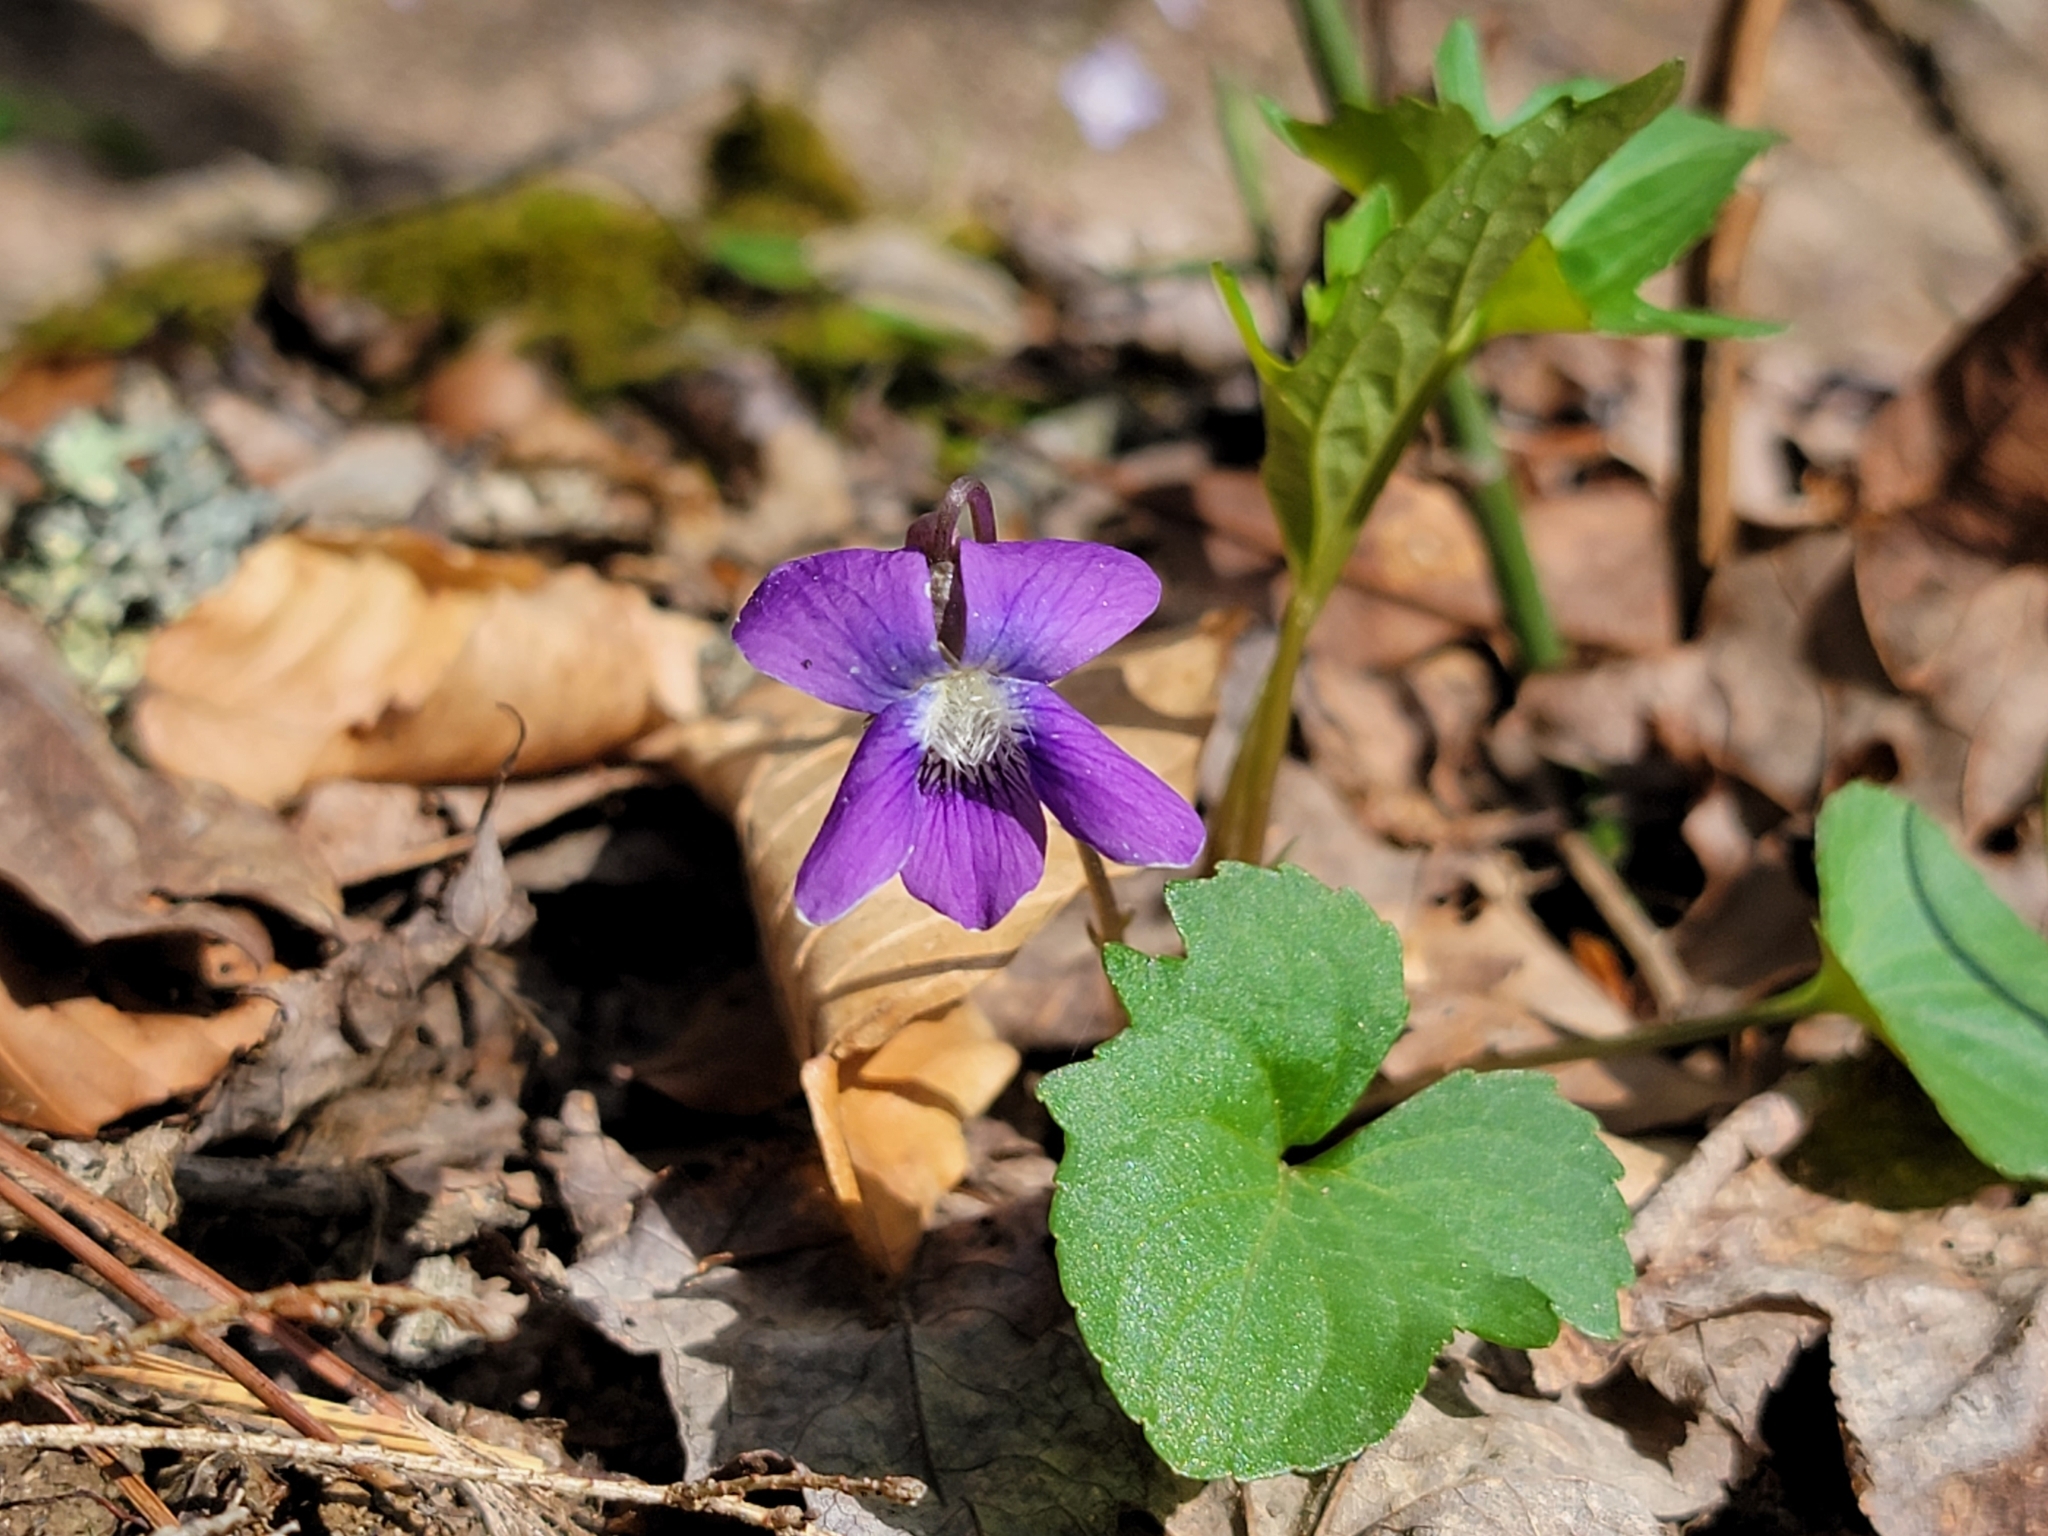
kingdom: Plantae
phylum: Tracheophyta
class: Magnoliopsida
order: Malpighiales
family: Violaceae
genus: Viola
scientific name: Viola palmata
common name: Early blue violet
